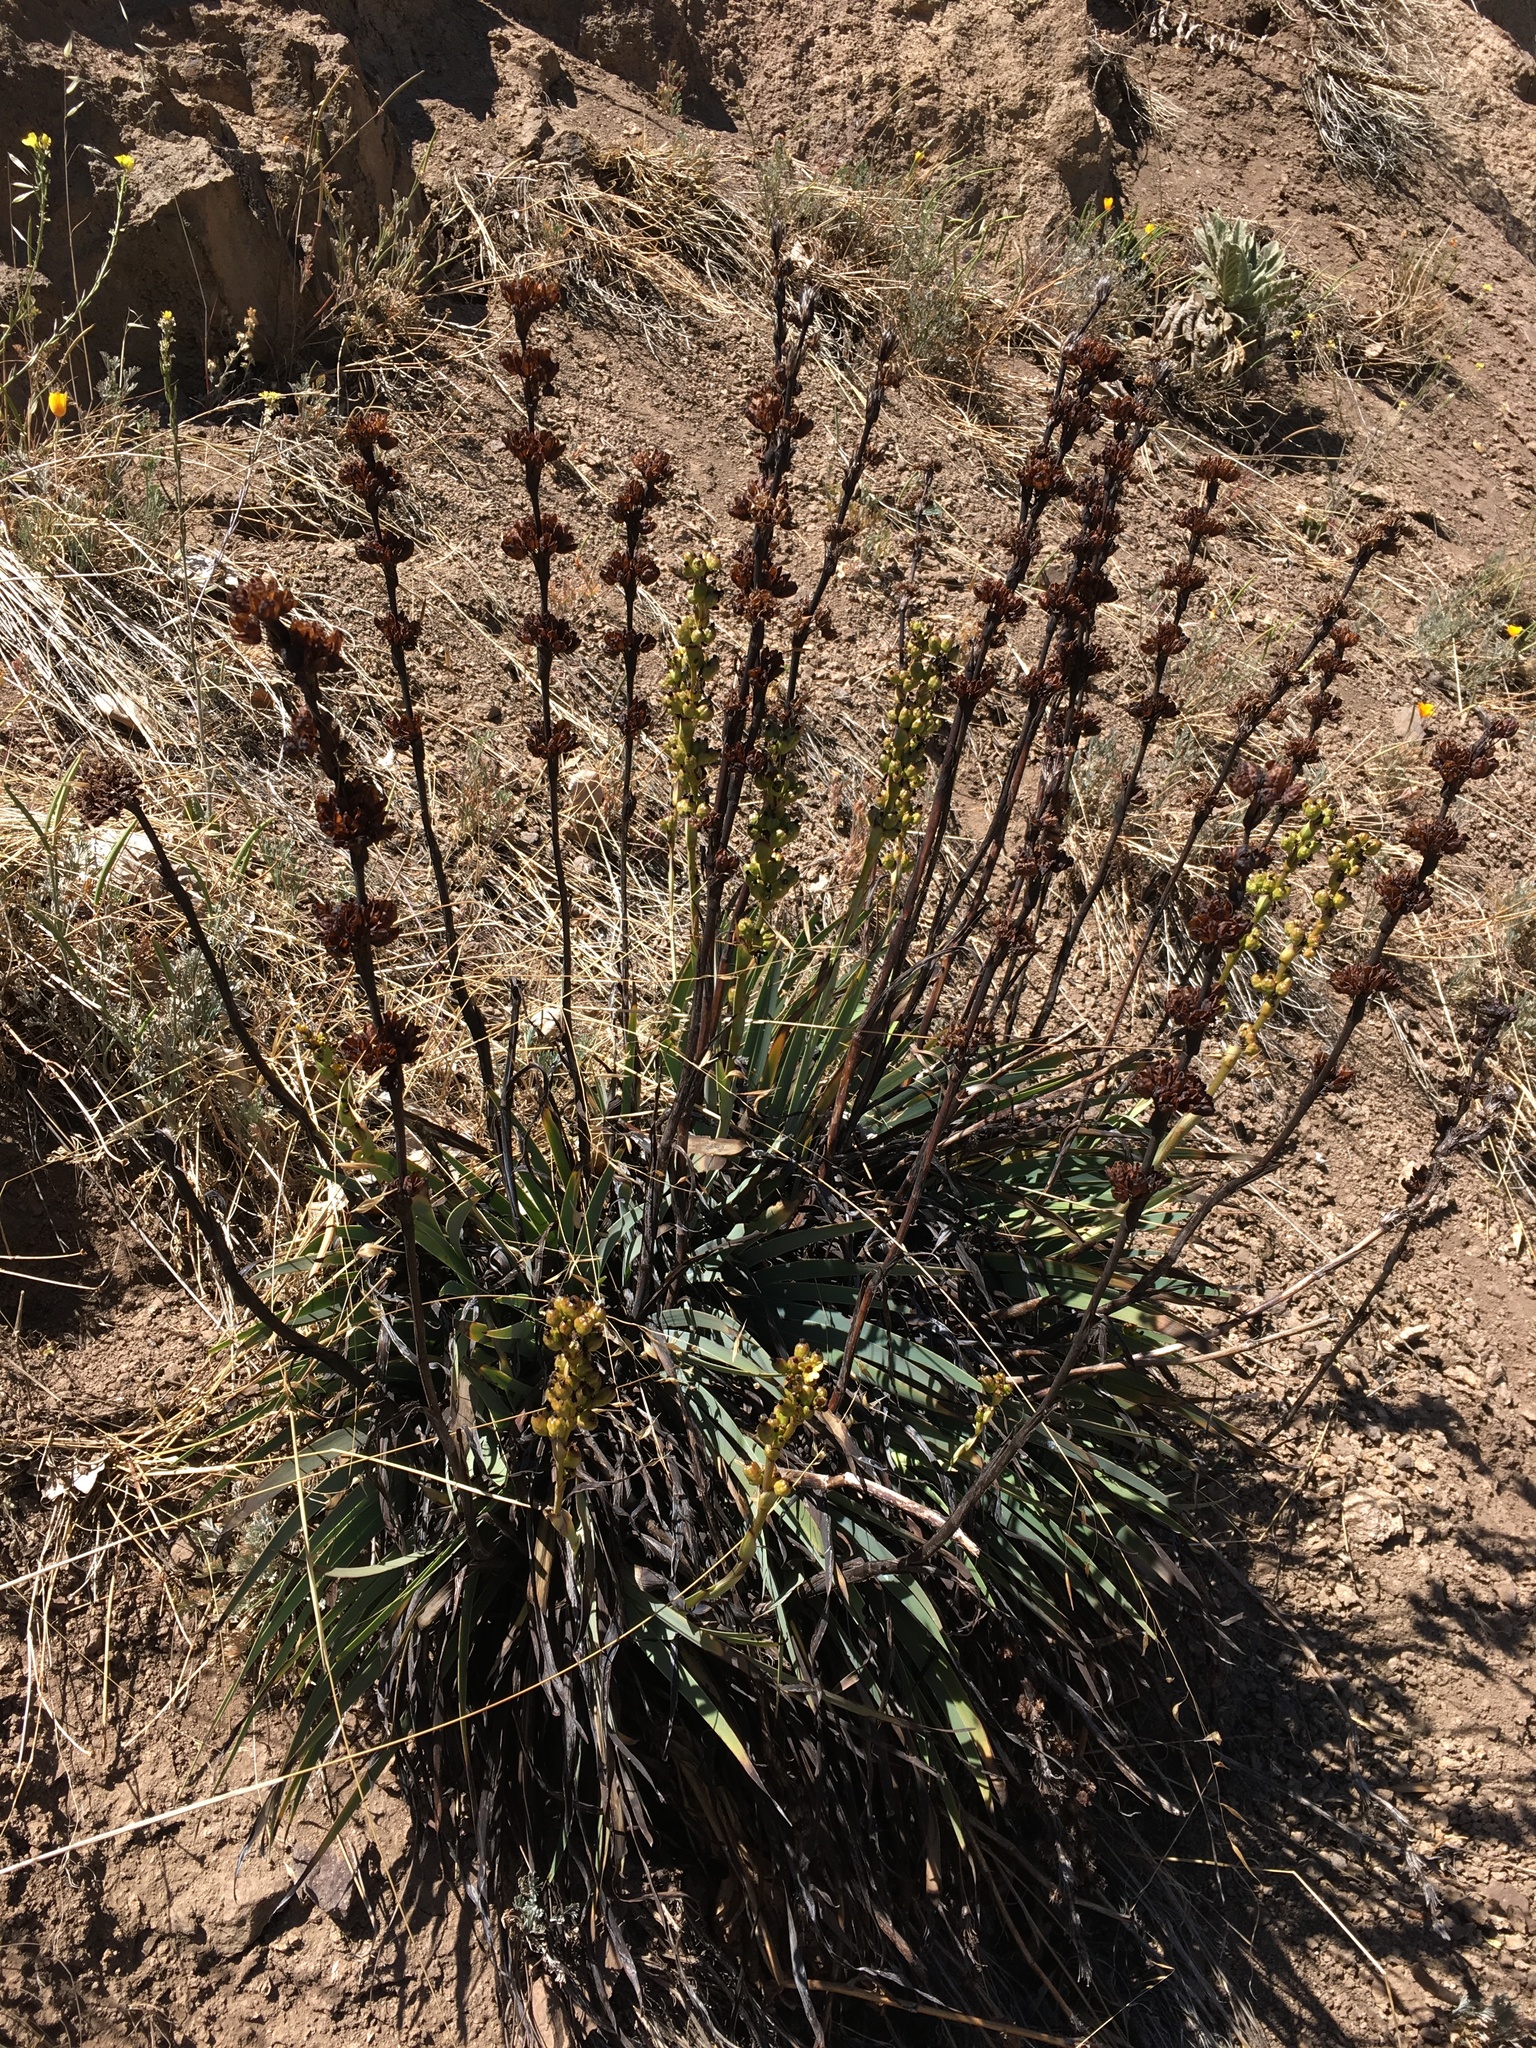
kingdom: Plantae
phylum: Tracheophyta
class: Liliopsida
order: Asparagales
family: Iridaceae
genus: Sisyrinchium
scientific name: Sisyrinchium striatum
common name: Pale yellow-eyed-grass
